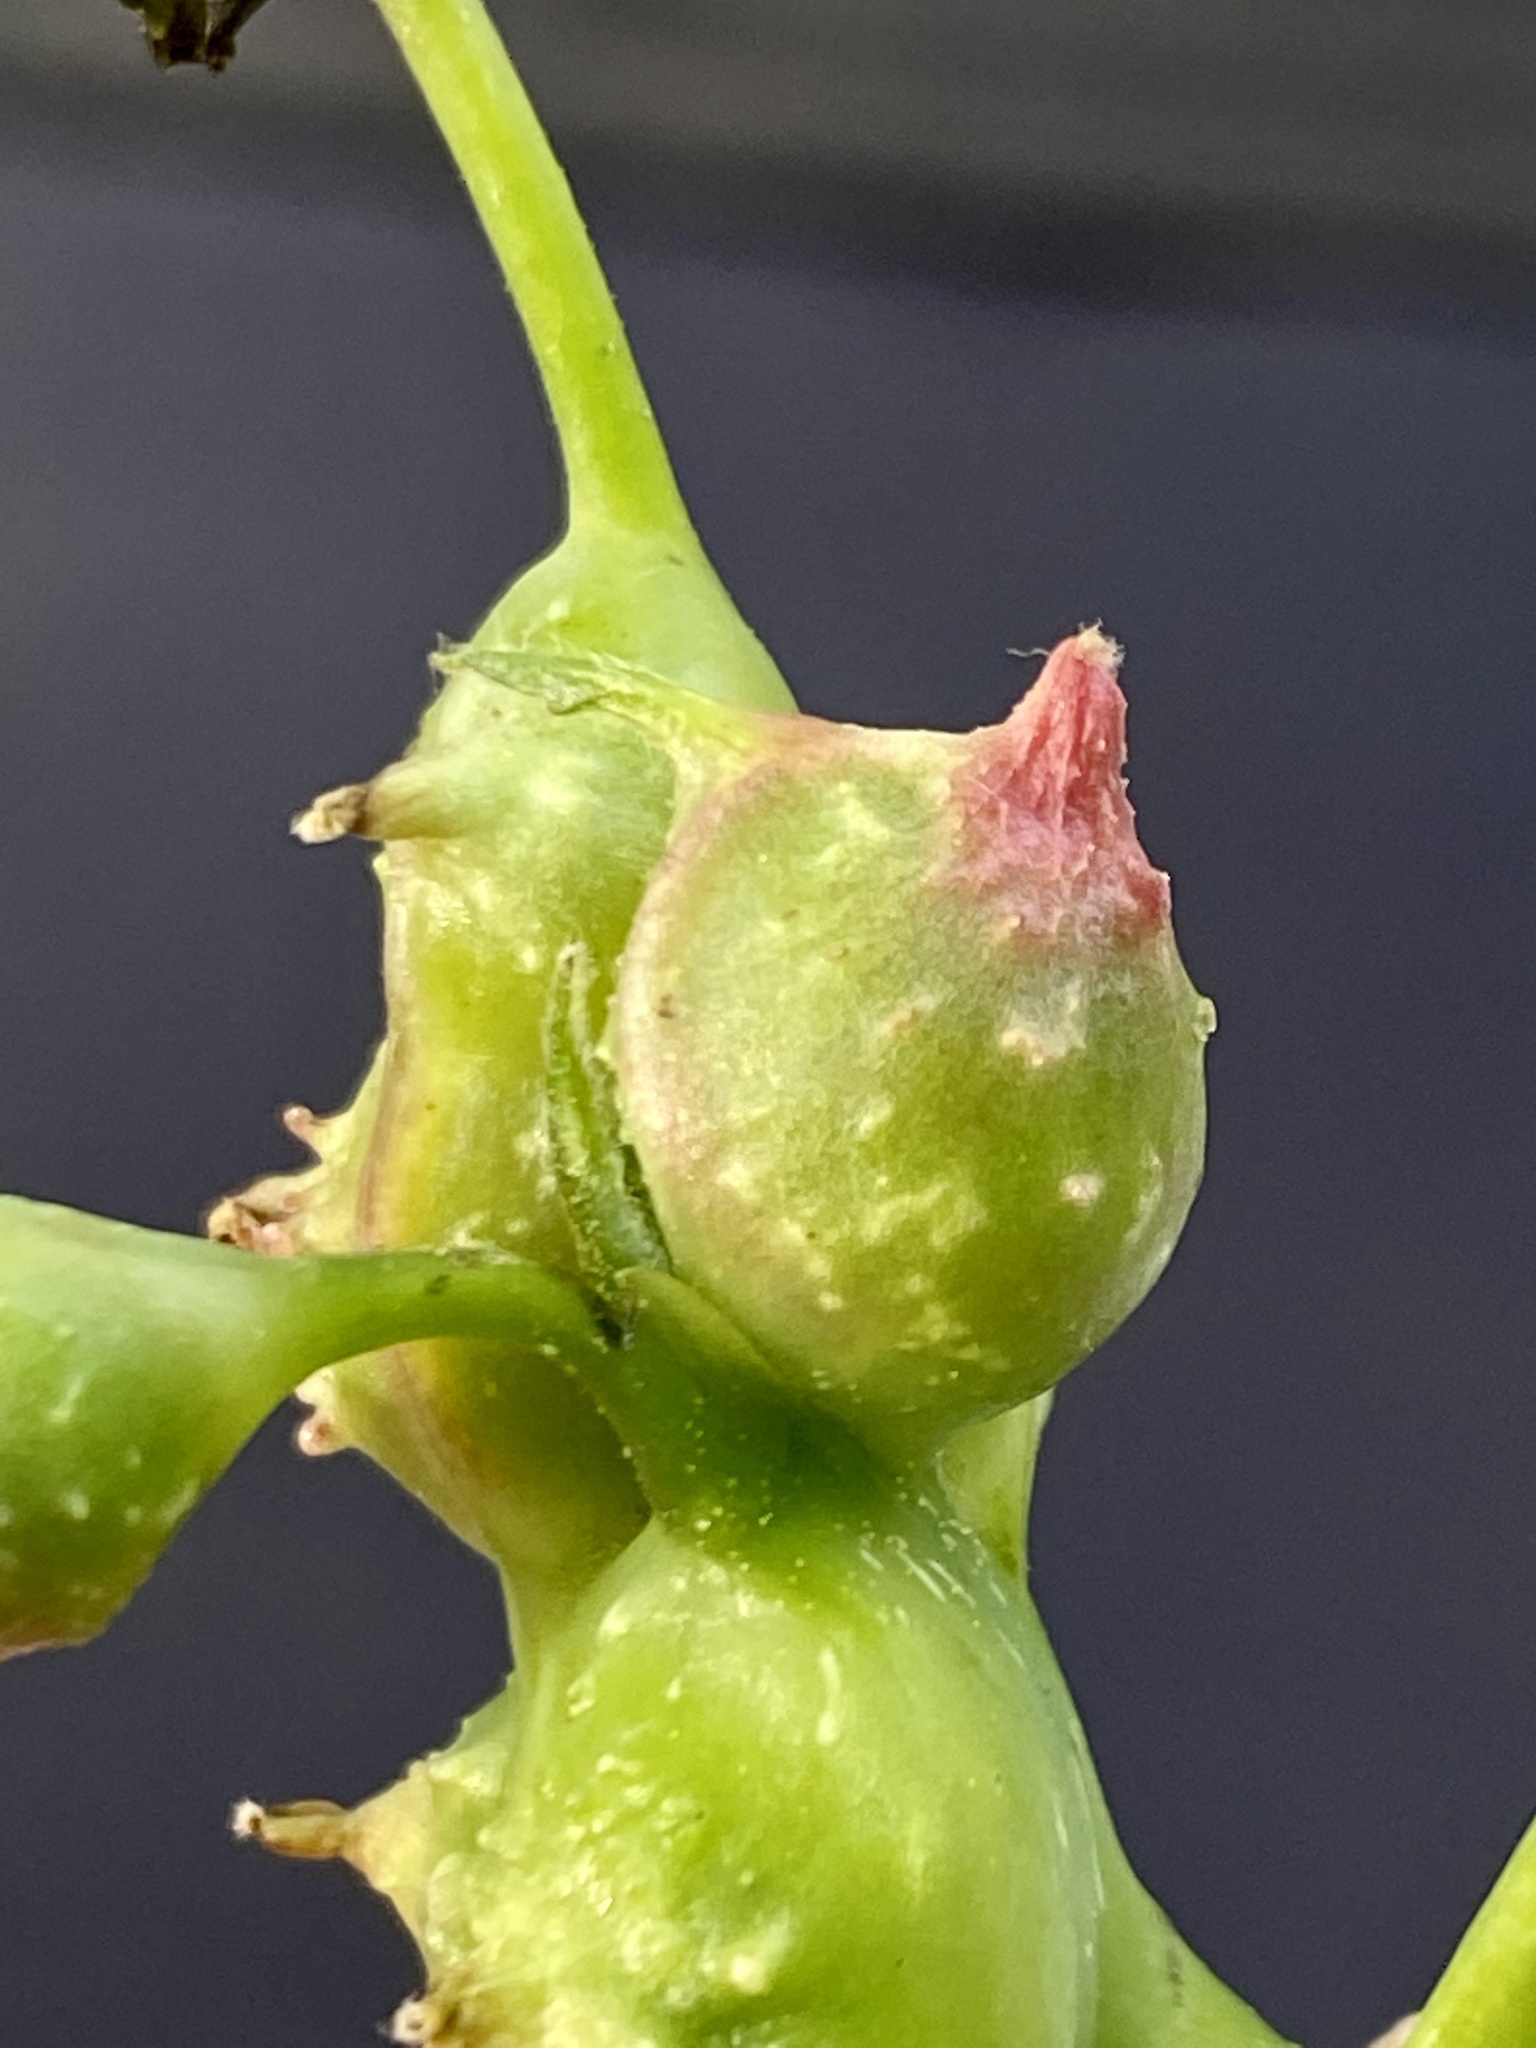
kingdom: Animalia
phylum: Arthropoda
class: Insecta
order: Hemiptera
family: Phylloxeridae
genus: Phylloxera
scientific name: Phylloxera spinosa
